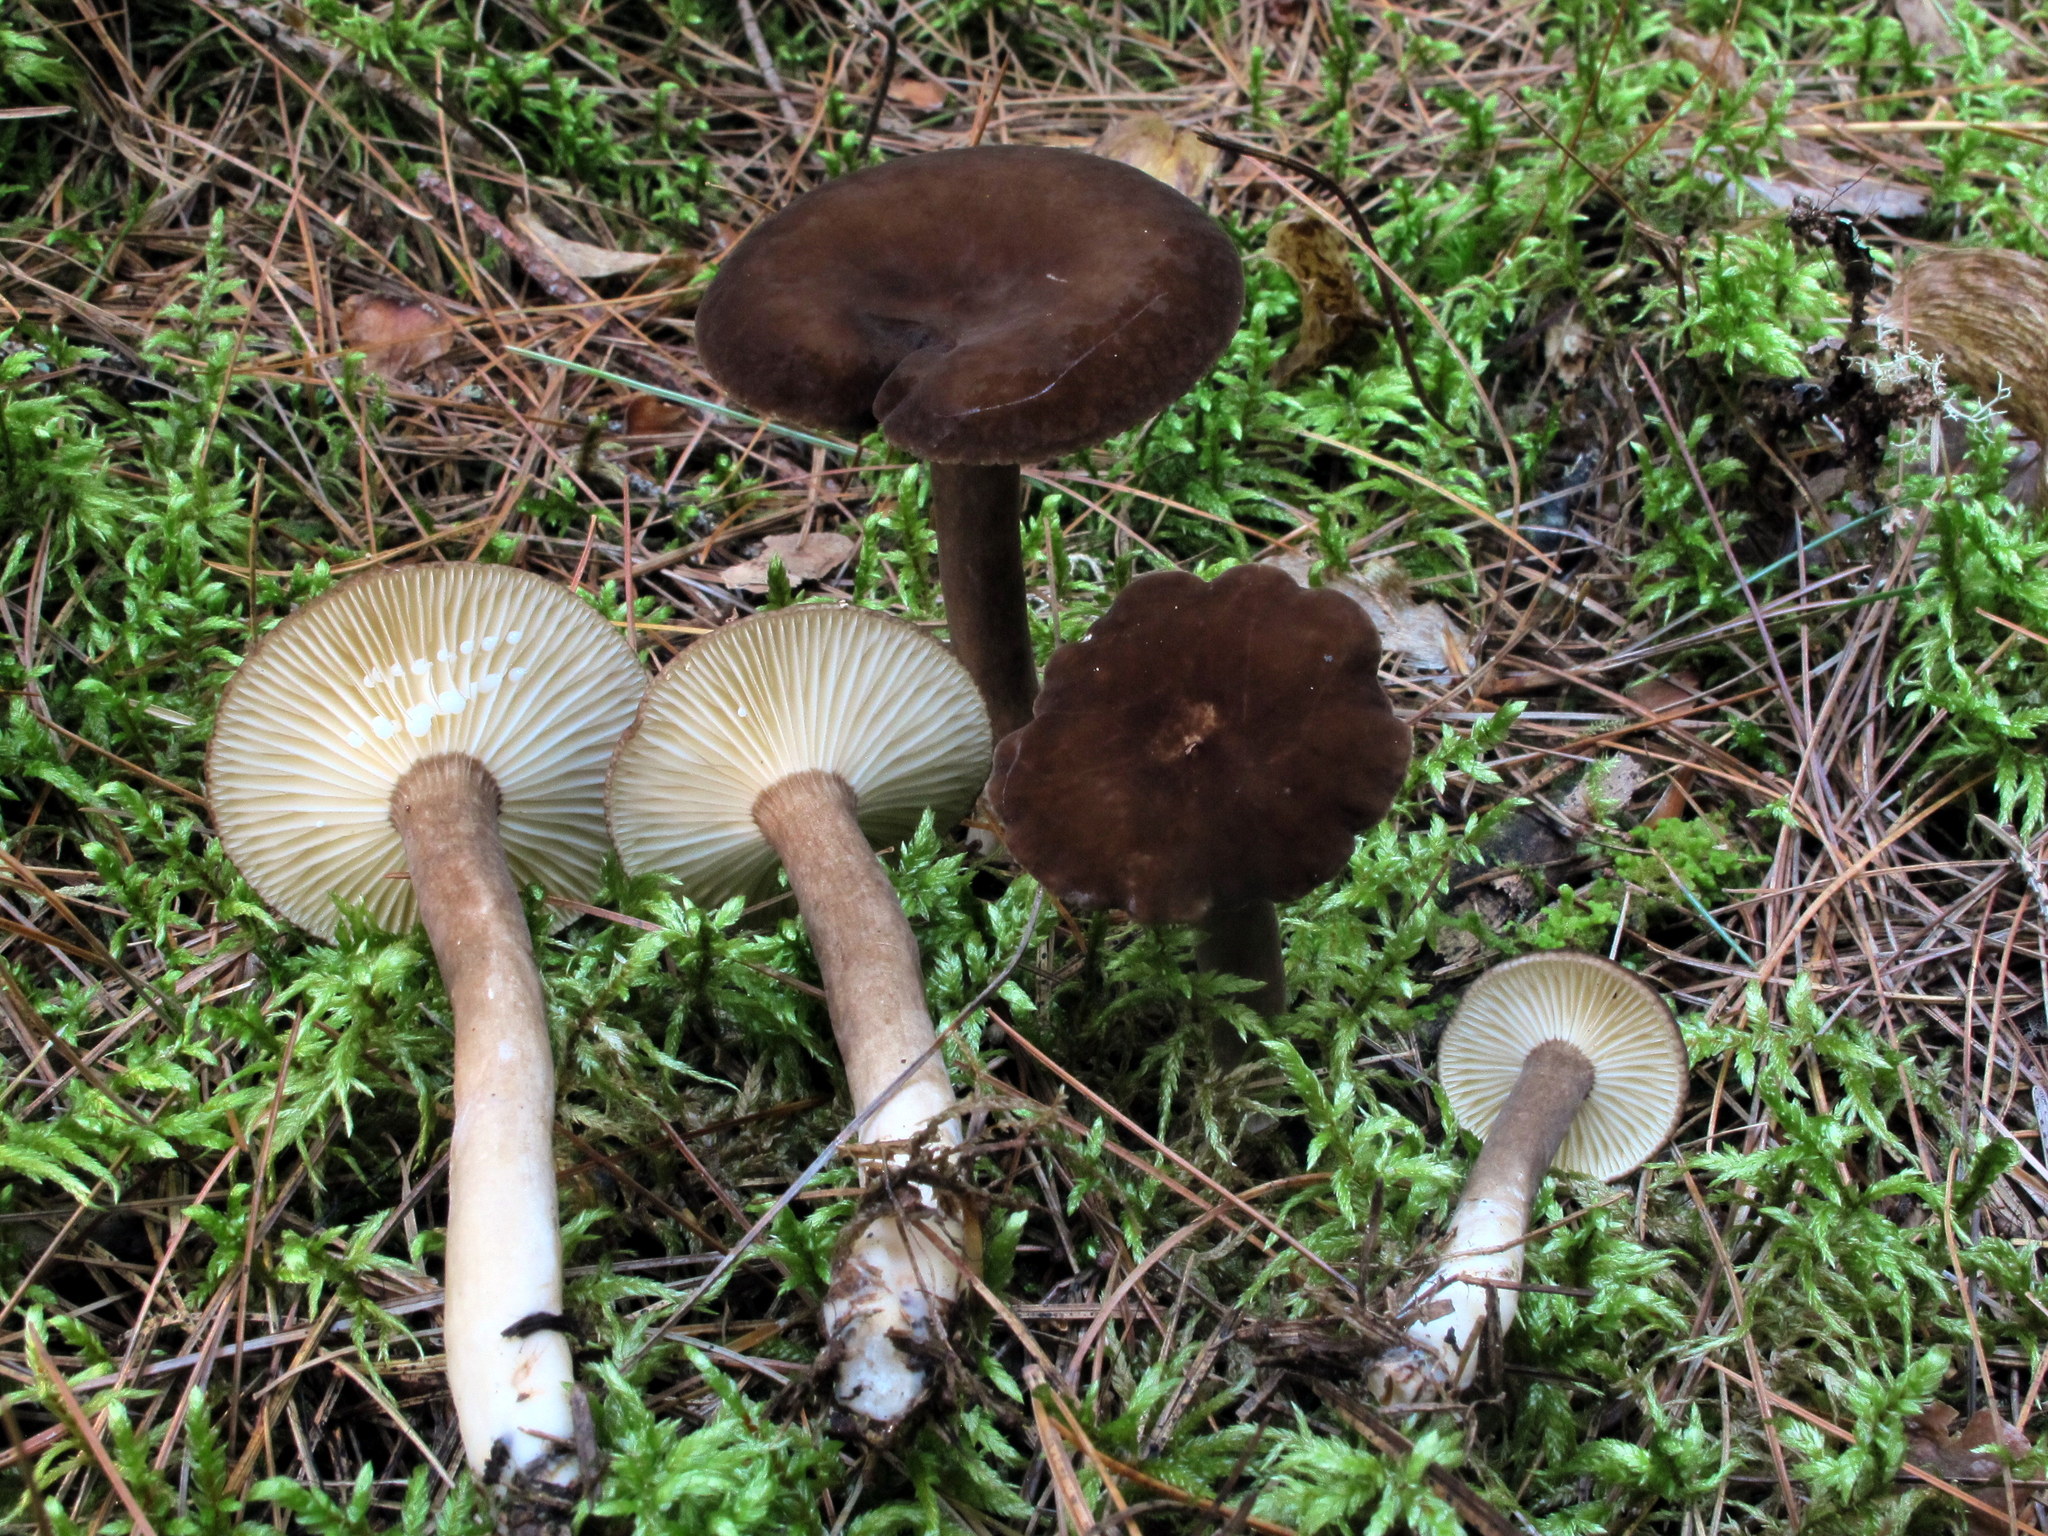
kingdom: Fungi
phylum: Basidiomycota
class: Agaricomycetes
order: Russulales
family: Russulaceae
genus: Lactarius
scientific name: Lactarius lignyotus
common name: Velvet milkcap
